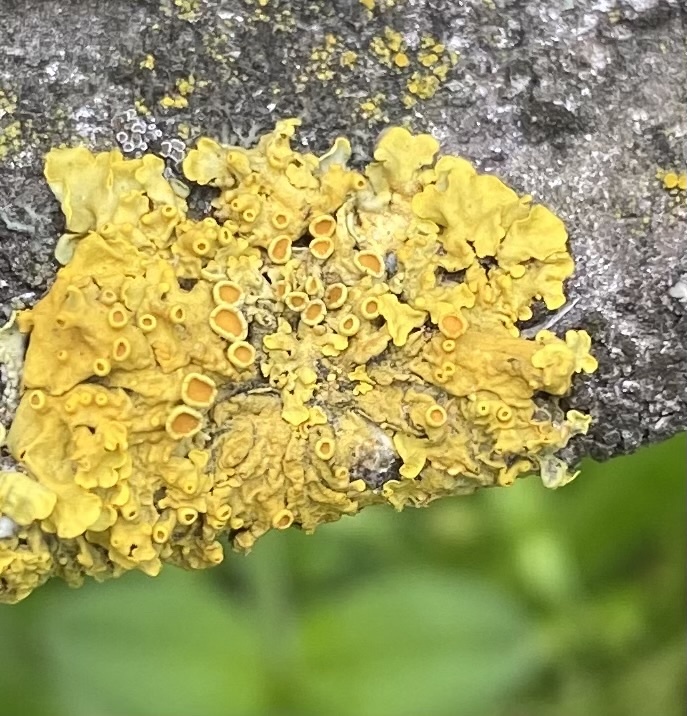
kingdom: Fungi
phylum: Ascomycota
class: Lecanoromycetes
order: Teloschistales
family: Teloschistaceae
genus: Xanthoria
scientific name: Xanthoria parietina
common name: Common orange lichen
